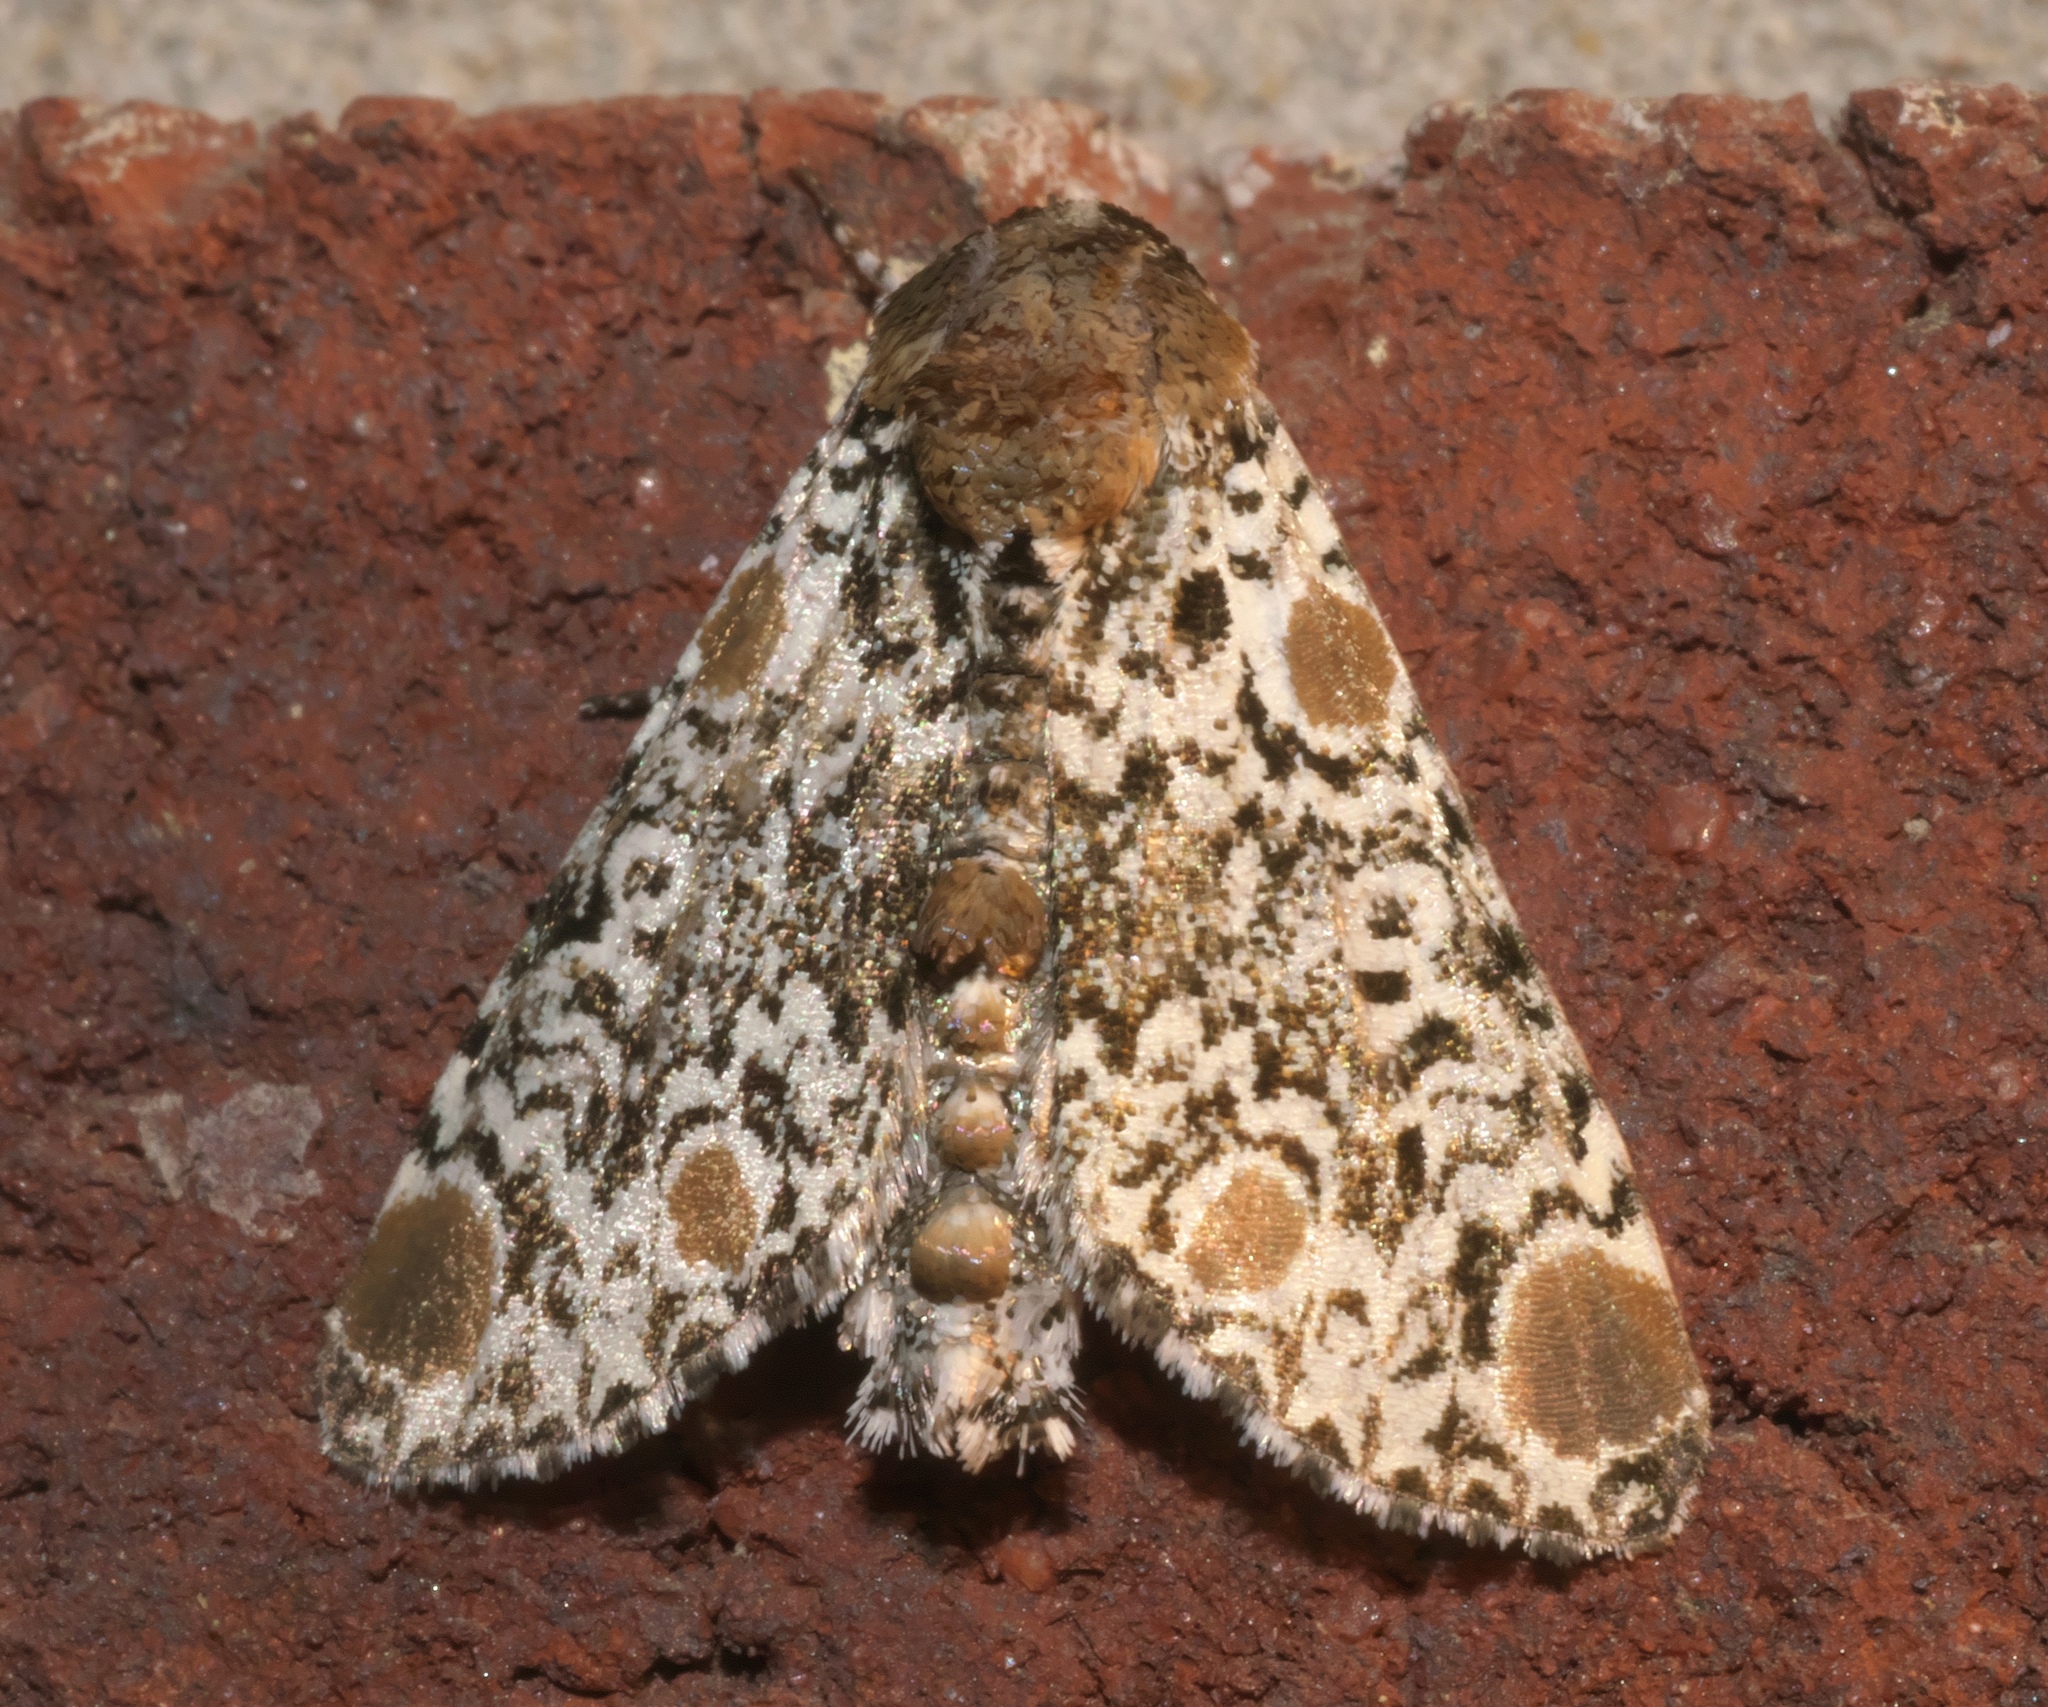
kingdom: Animalia
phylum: Arthropoda
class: Insecta
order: Lepidoptera
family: Noctuidae
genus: Harrisimemna
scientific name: Harrisimemna trisignata
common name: Harris threespot
